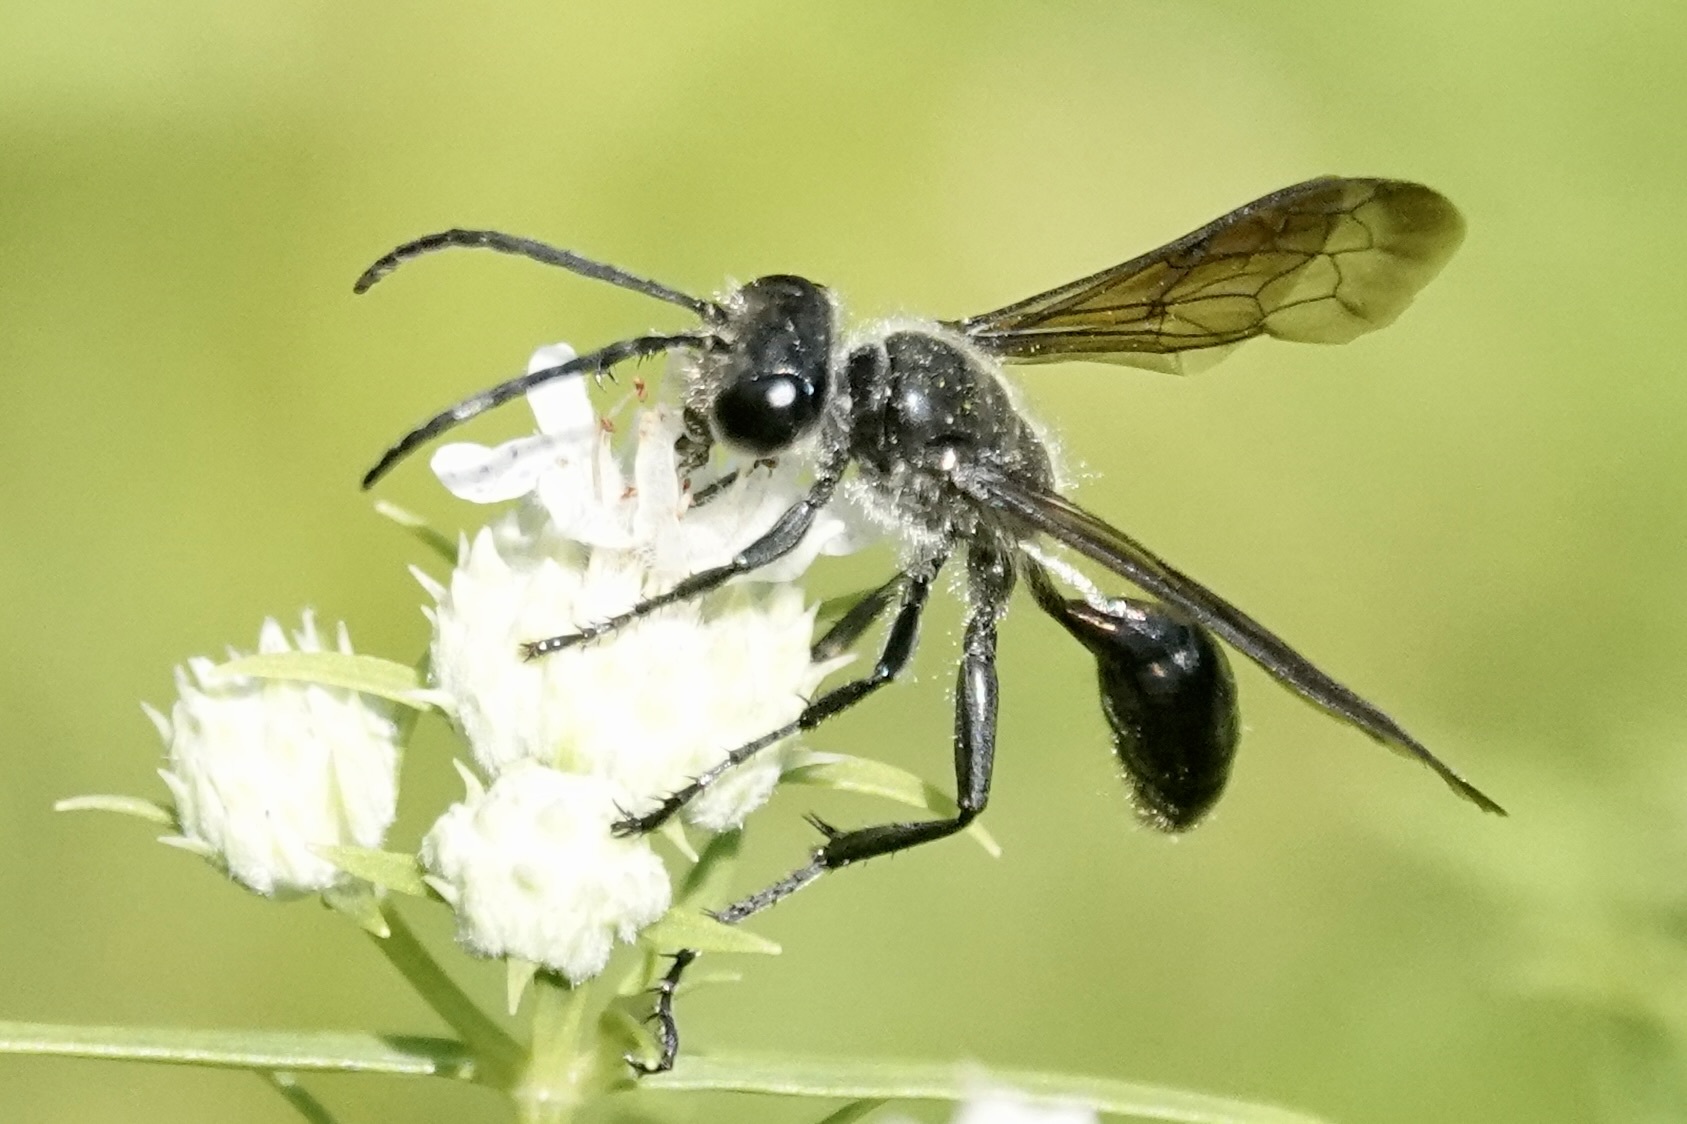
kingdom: Animalia
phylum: Arthropoda
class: Insecta
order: Hymenoptera
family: Sphecidae
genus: Isodontia
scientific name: Isodontia mexicana
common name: Mud dauber
